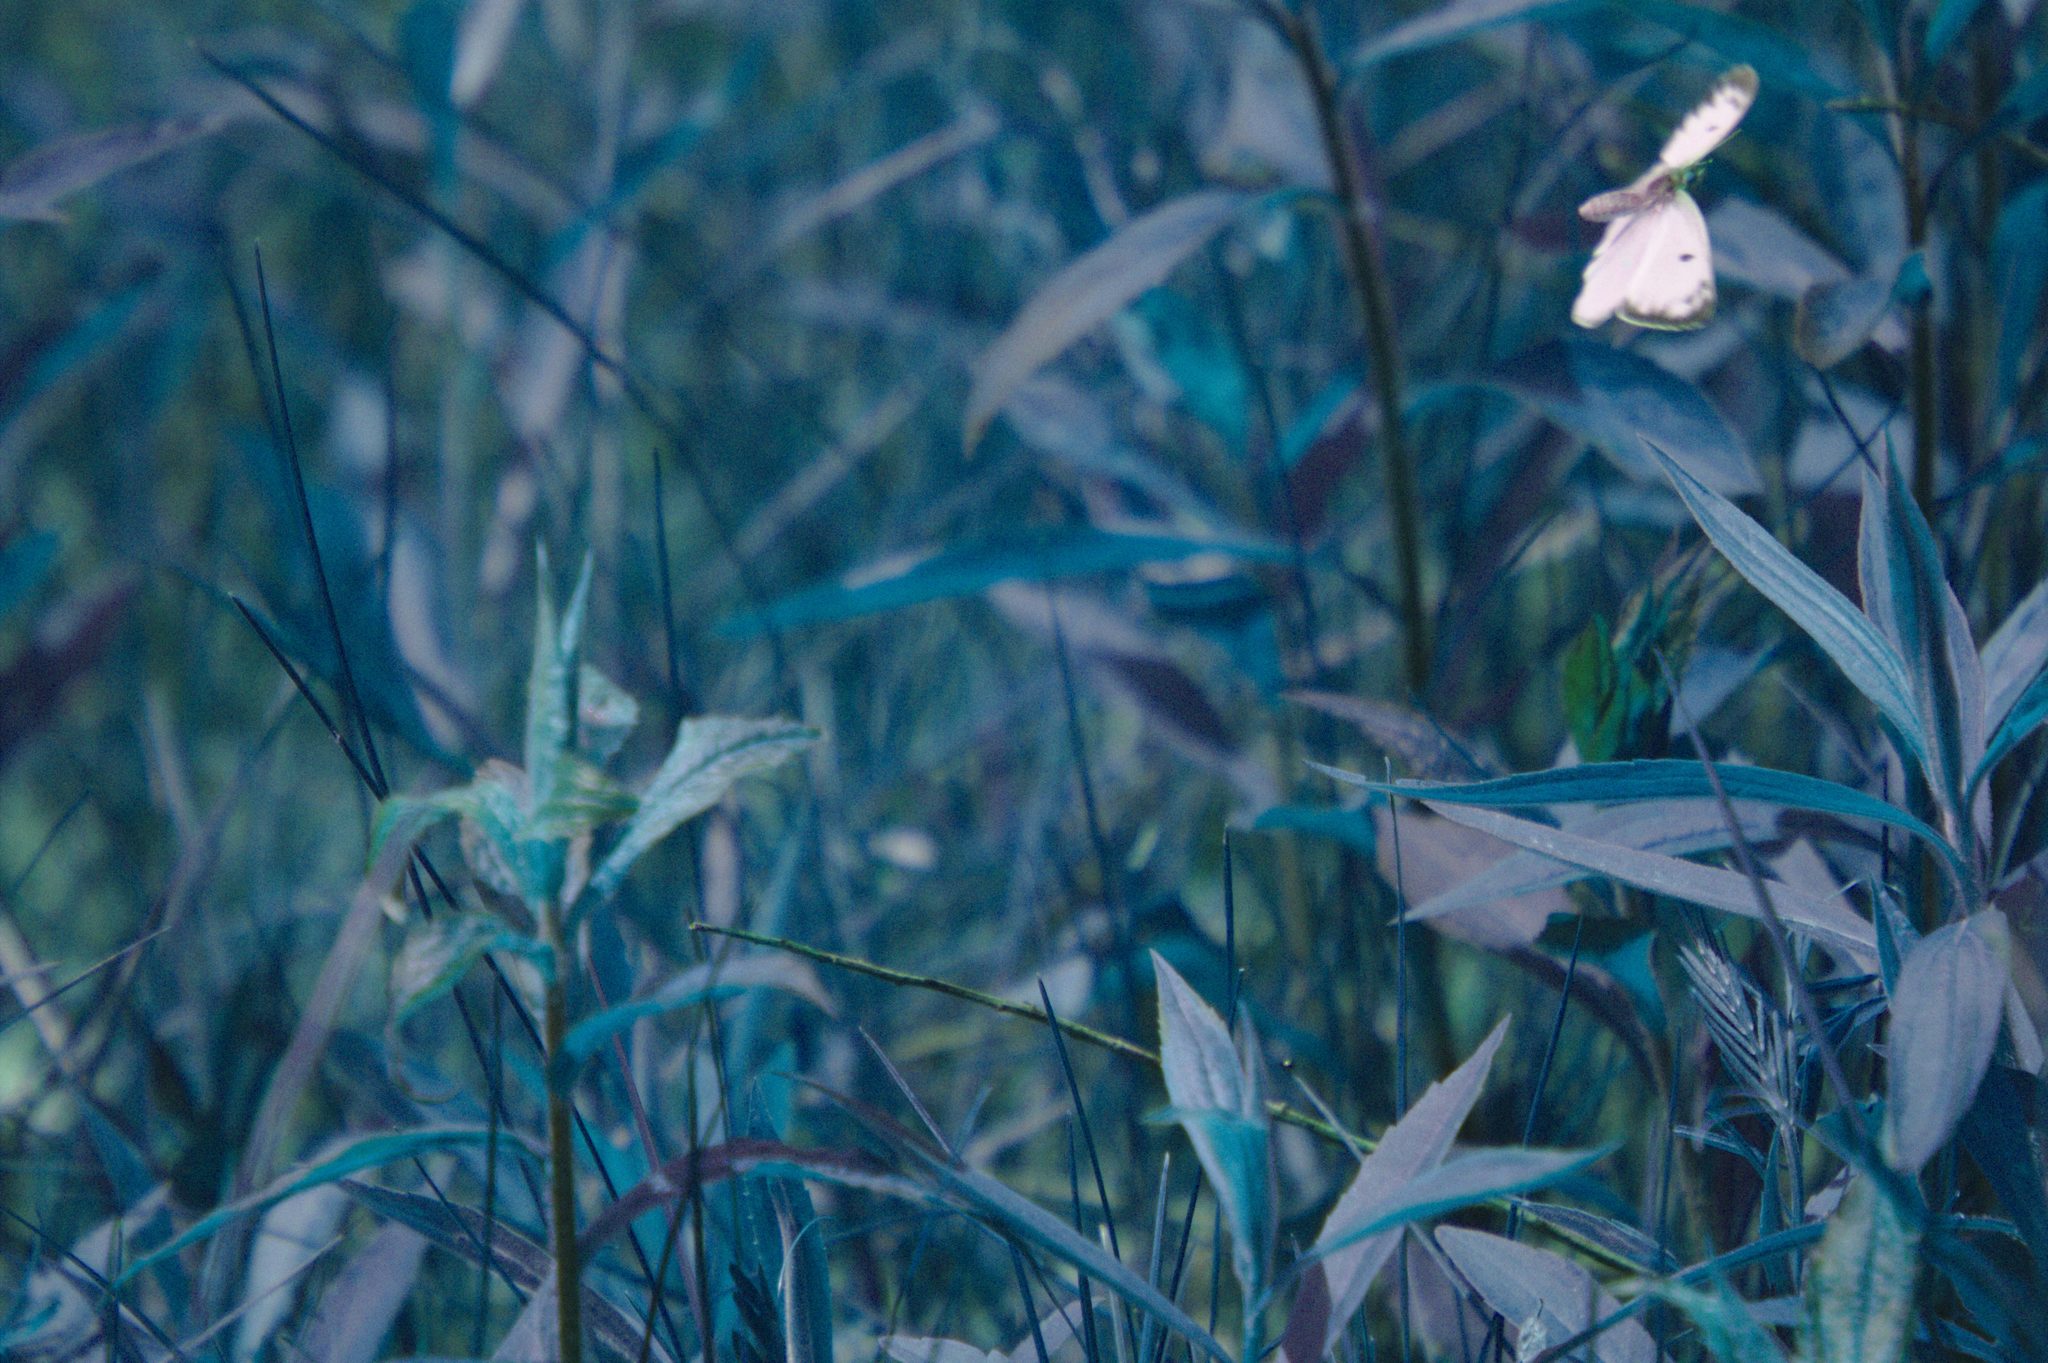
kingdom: Animalia
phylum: Arthropoda
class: Insecta
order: Lepidoptera
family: Pieridae
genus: Colias
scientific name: Colias philodice
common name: Clouded sulphur
